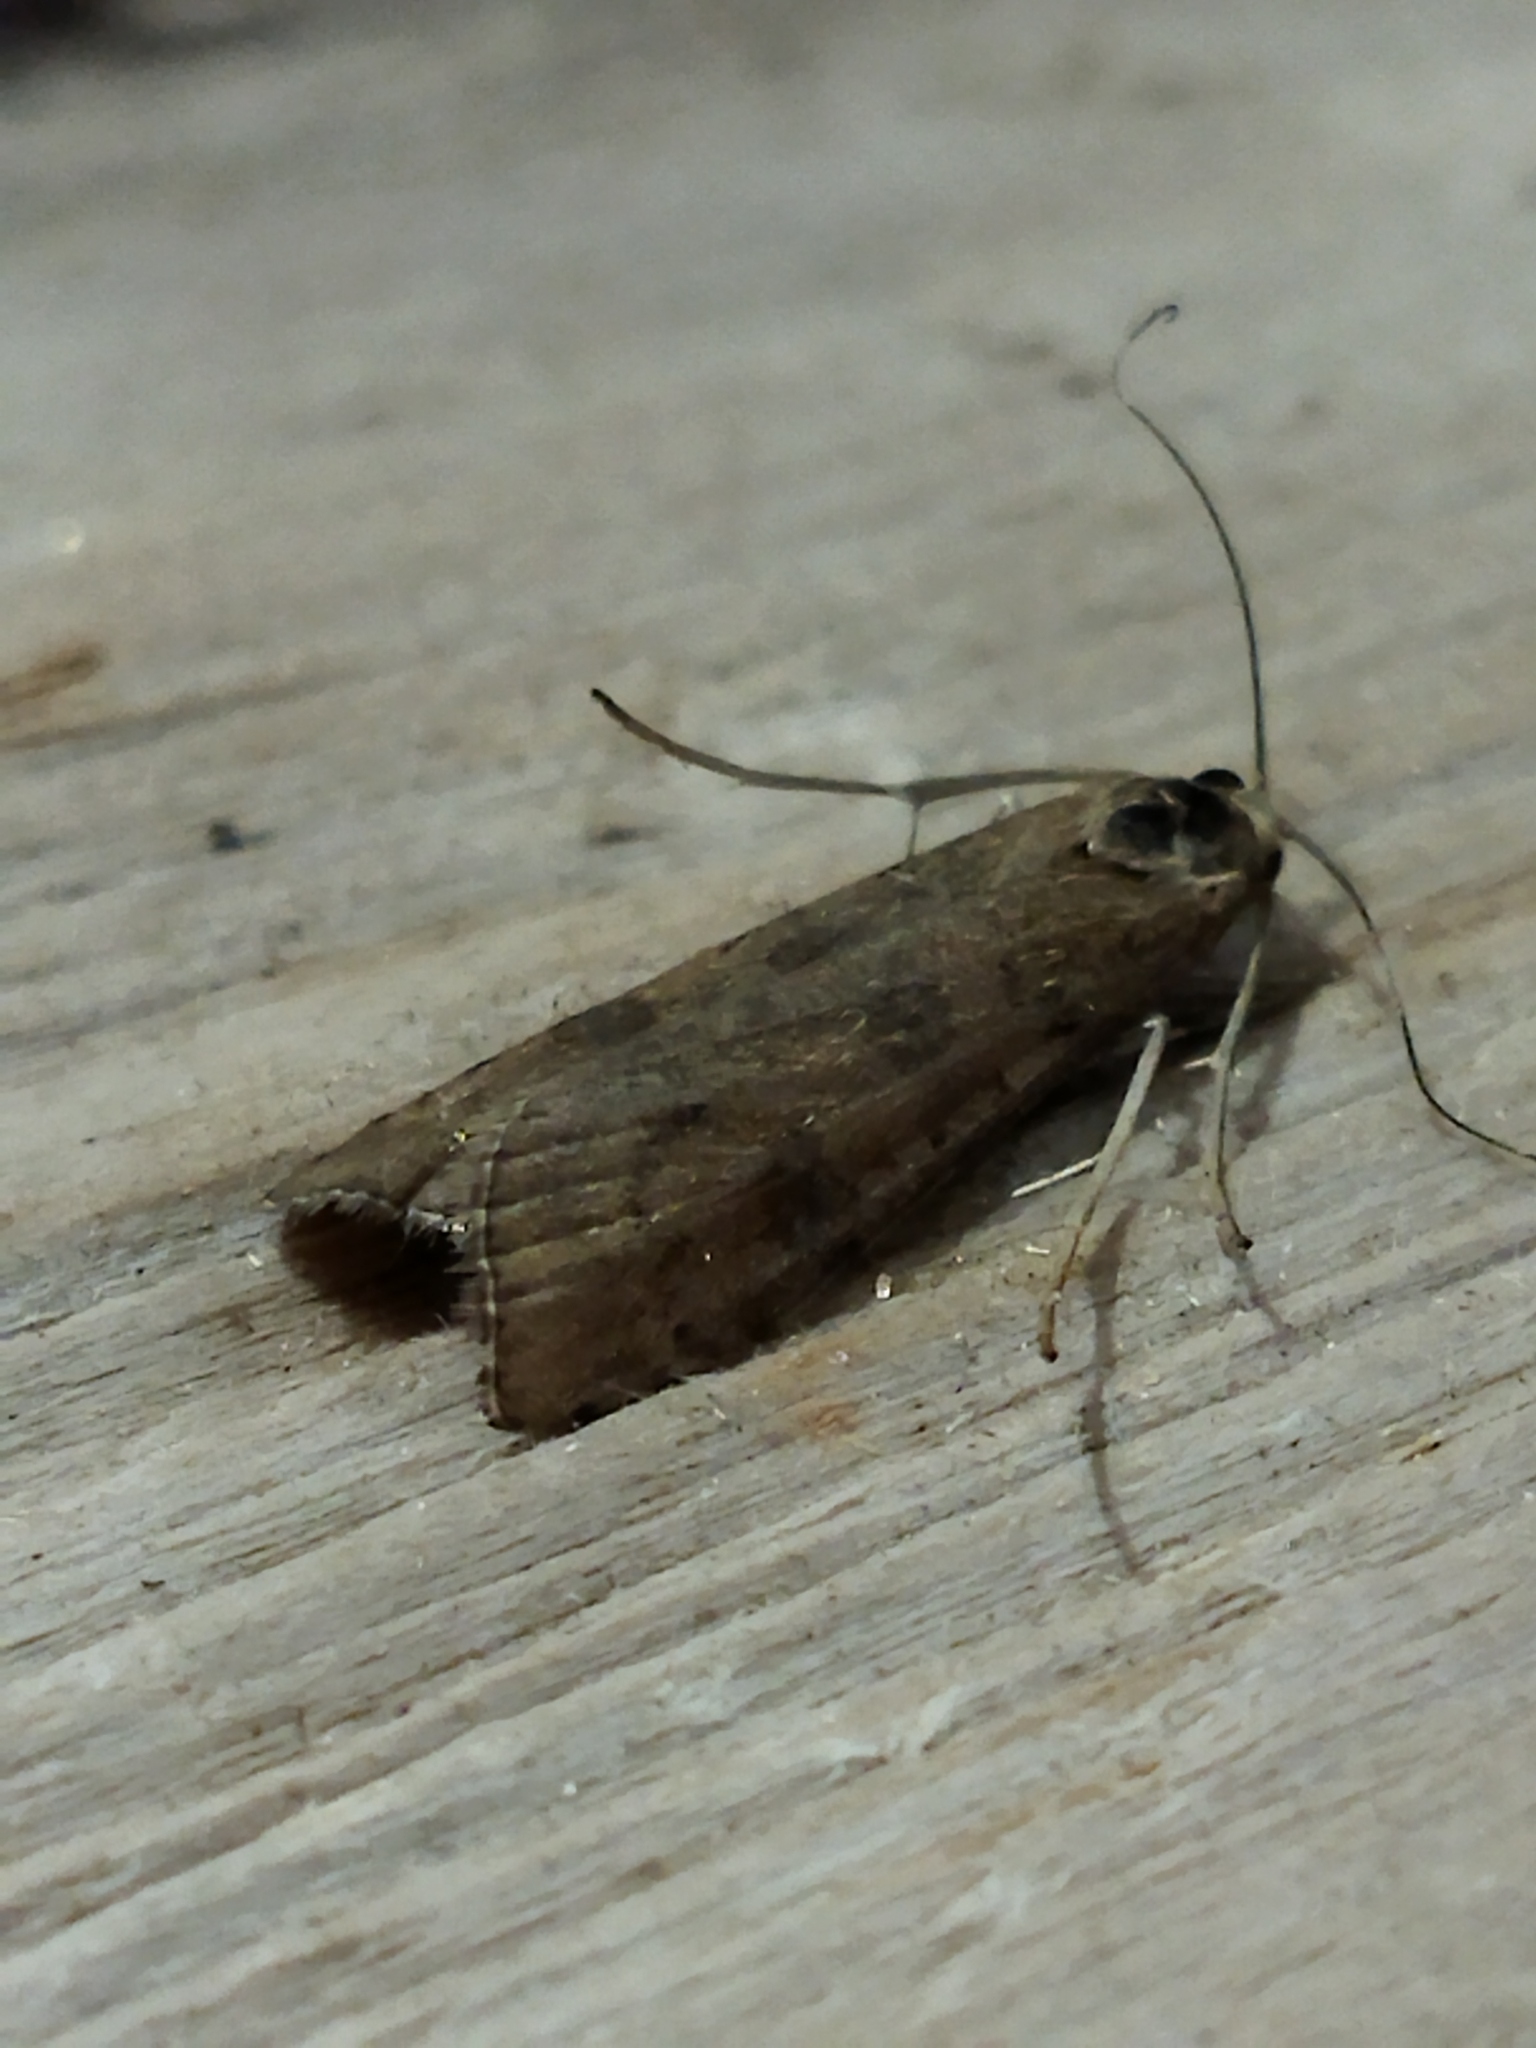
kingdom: Animalia
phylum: Arthropoda
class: Insecta
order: Lepidoptera
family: Crambidae
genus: Nomophila
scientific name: Nomophila noctuella
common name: Rush veneer
